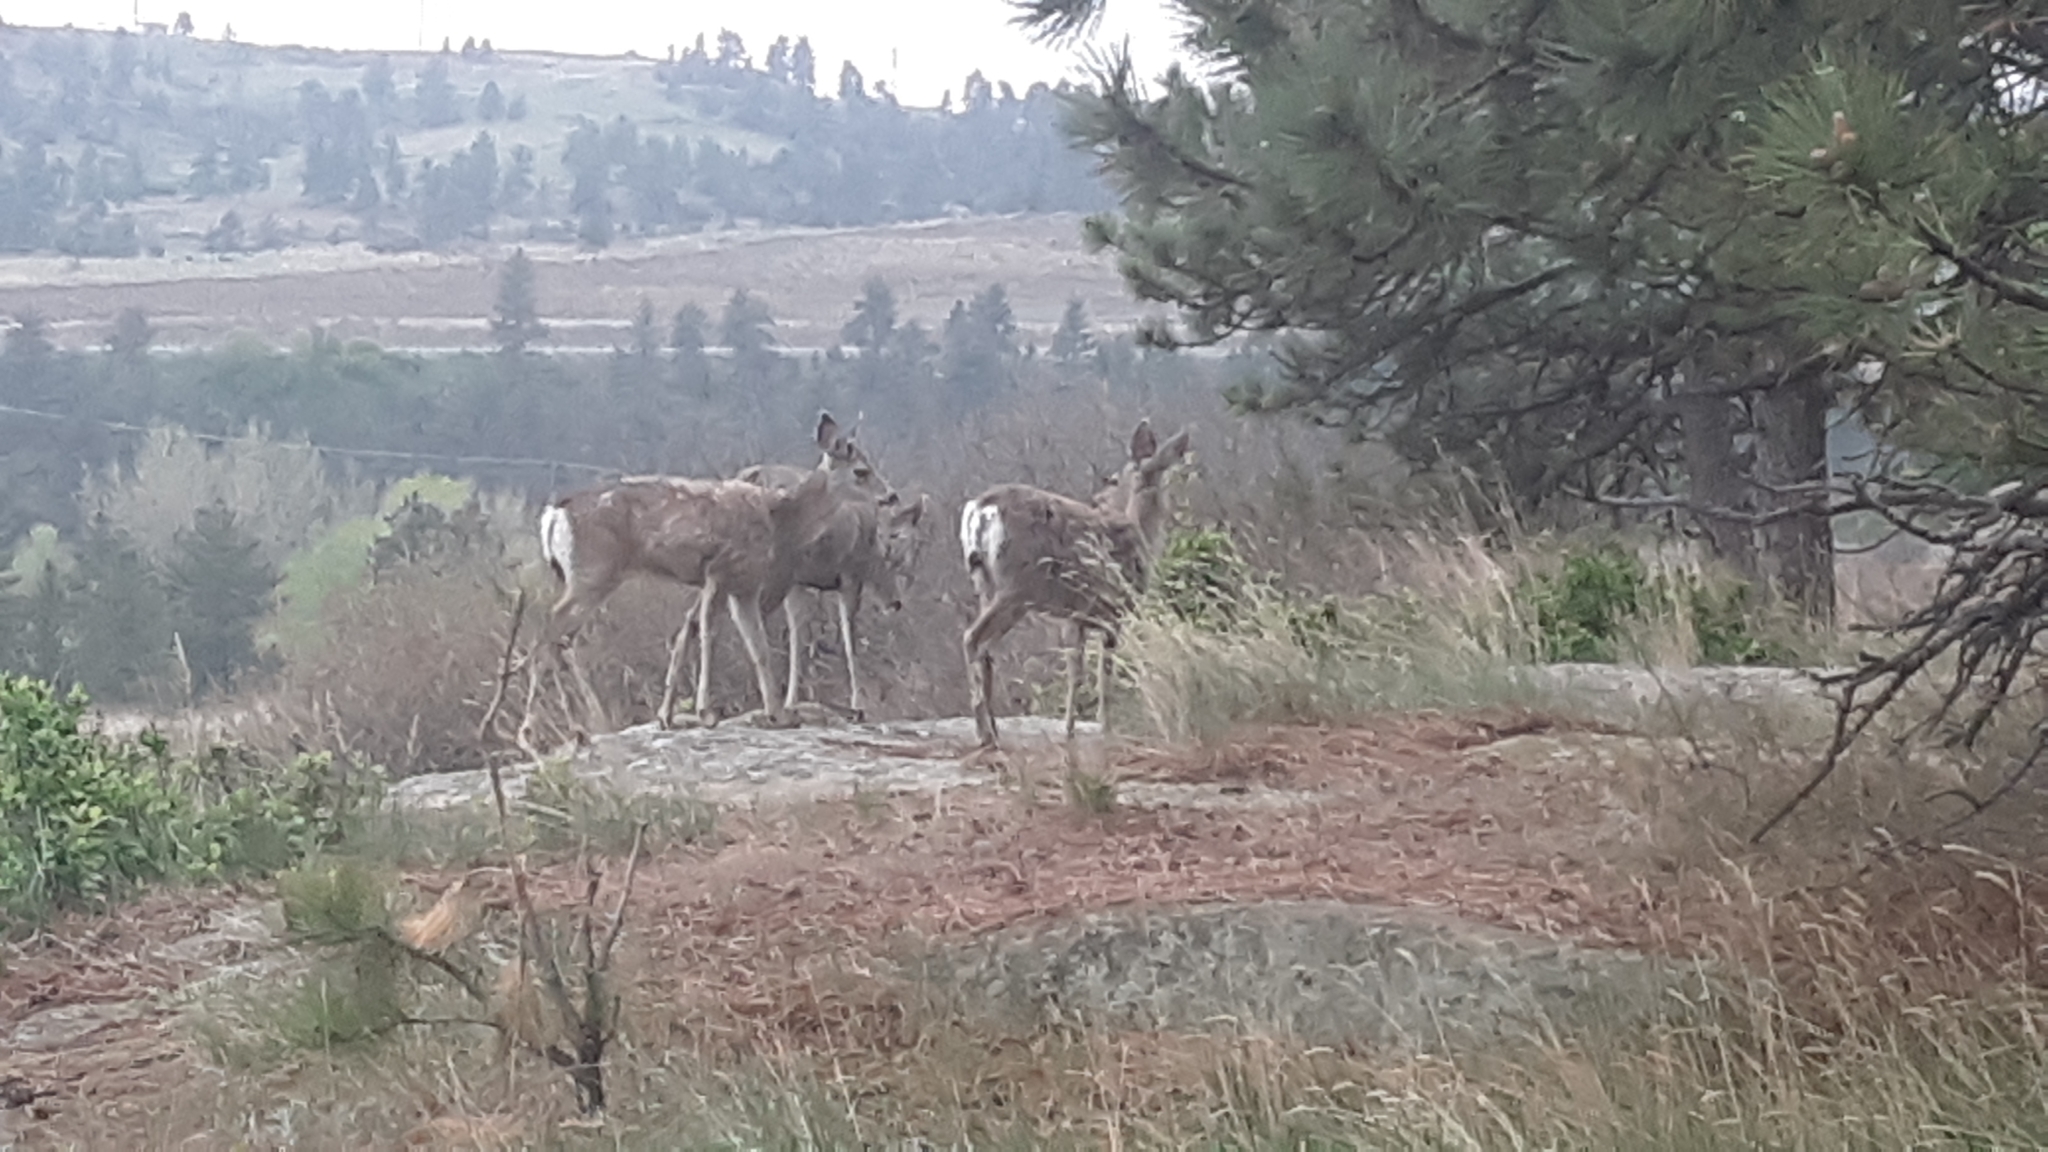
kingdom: Animalia
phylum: Chordata
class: Mammalia
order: Artiodactyla
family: Cervidae
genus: Odocoileus
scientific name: Odocoileus hemionus
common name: Mule deer
